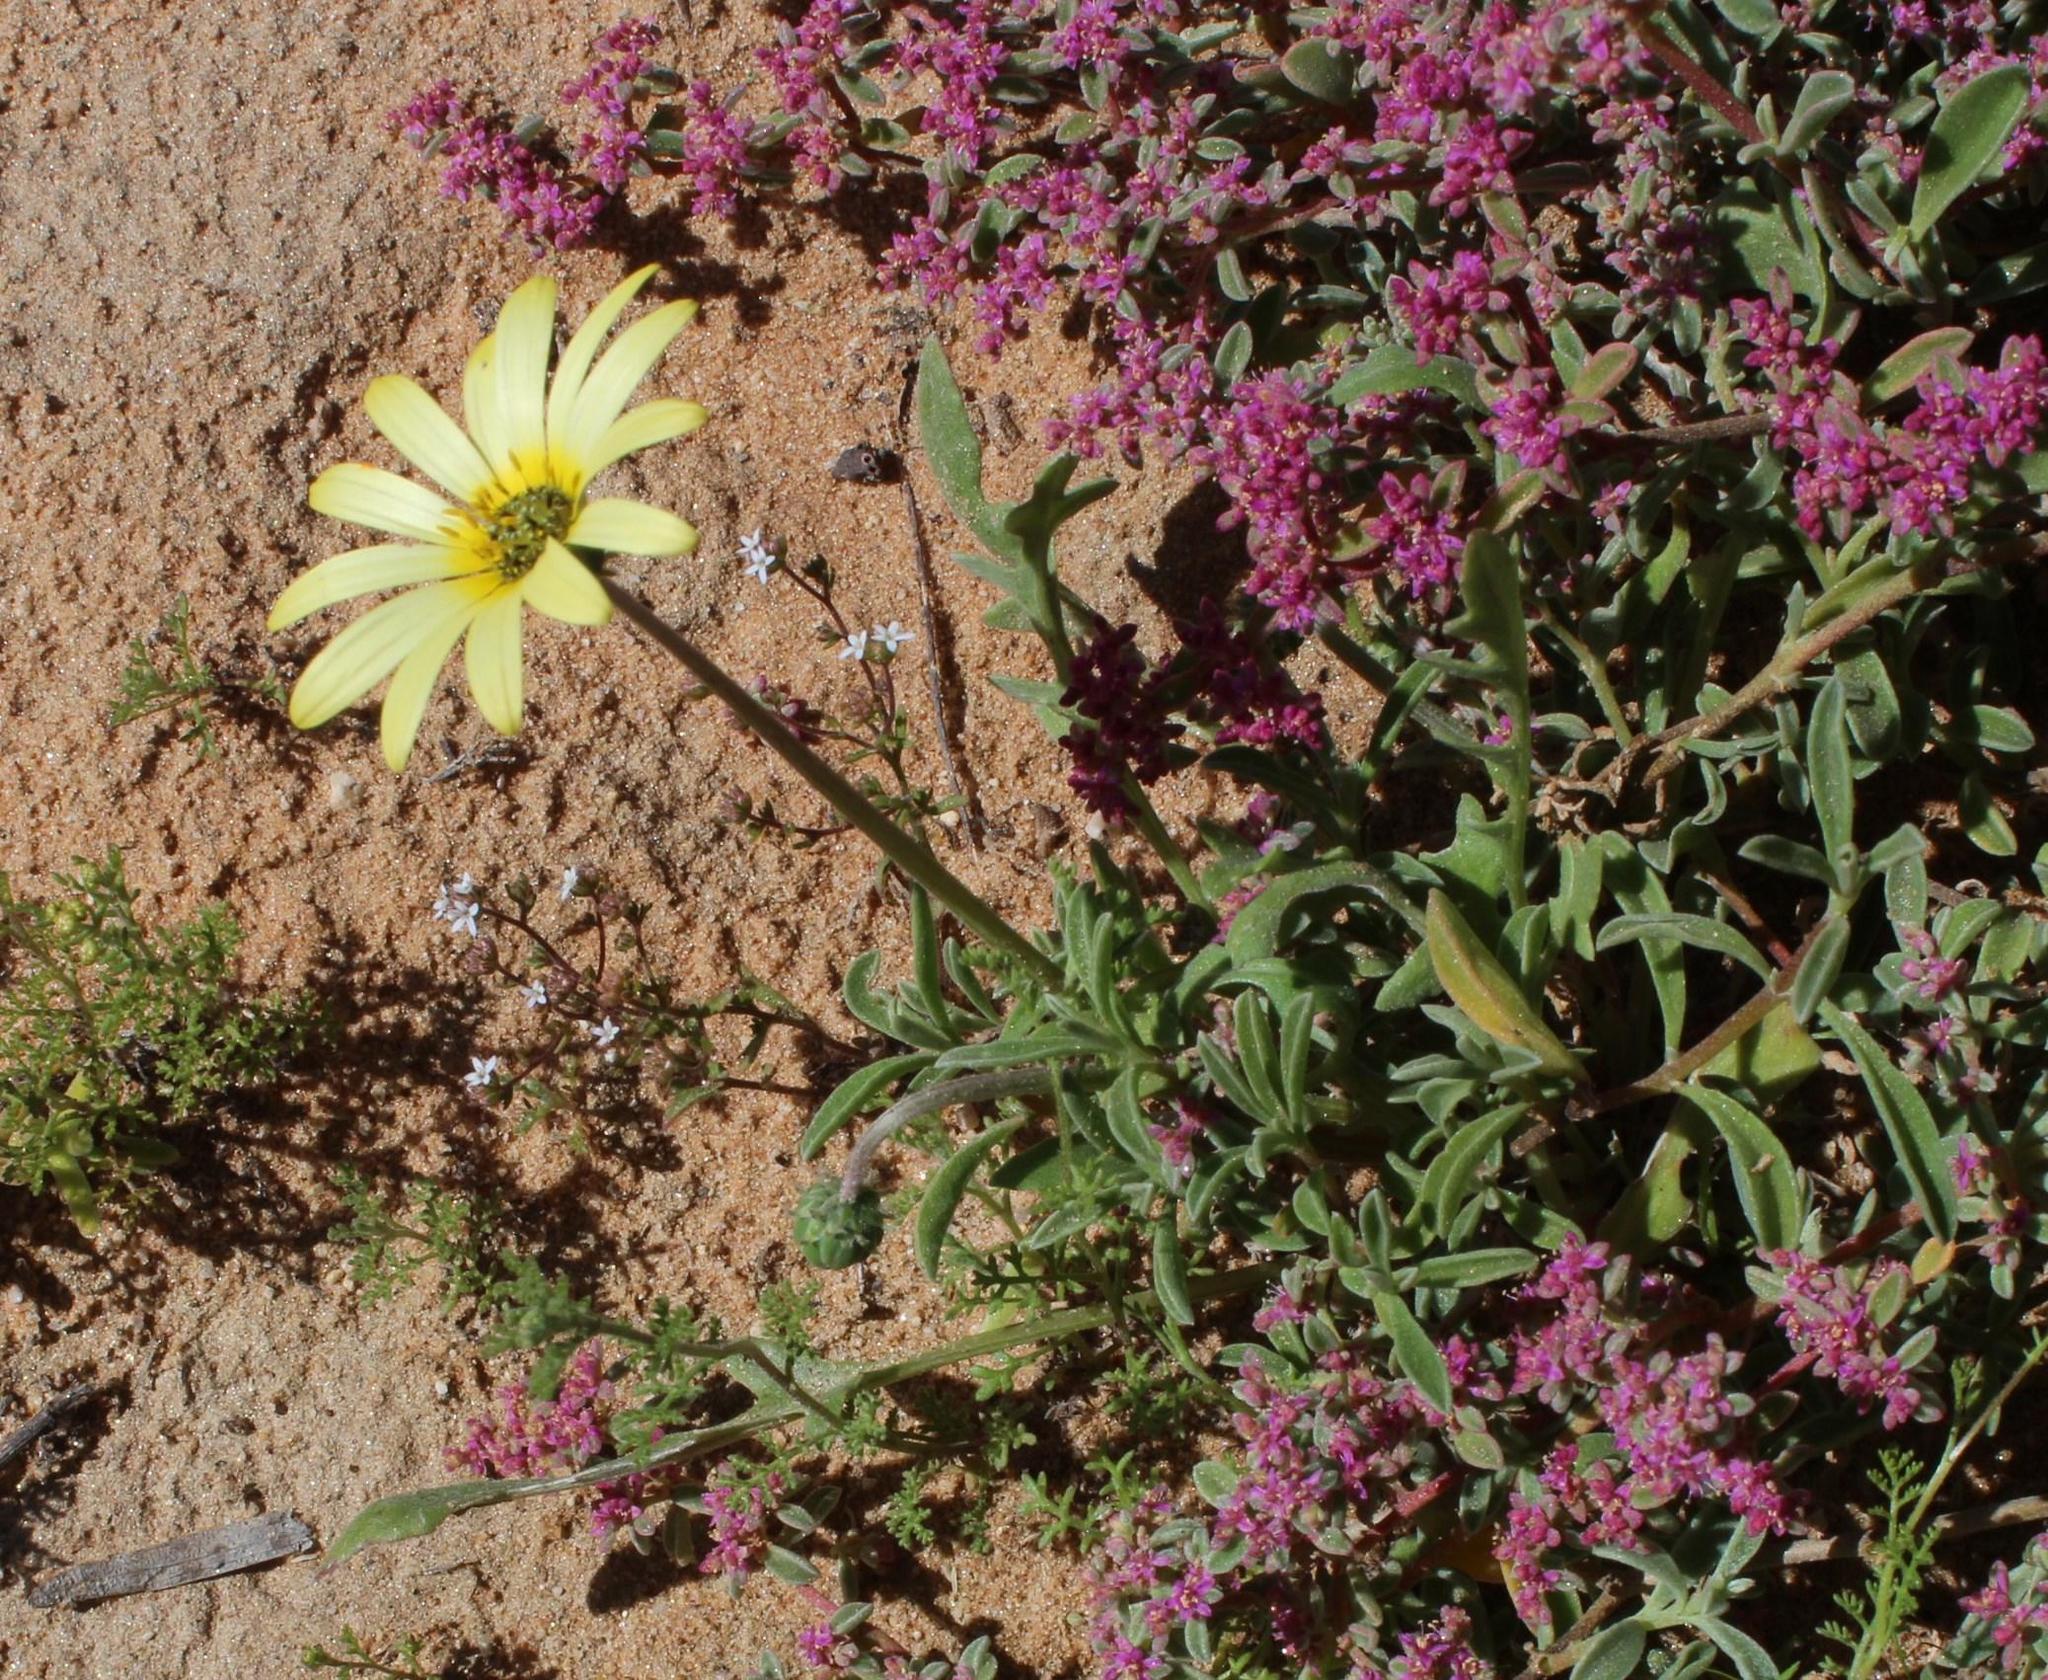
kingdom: Plantae
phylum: Tracheophyta
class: Magnoliopsida
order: Asterales
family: Asteraceae
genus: Arctotheca
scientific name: Arctotheca calendula
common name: Capeweed
